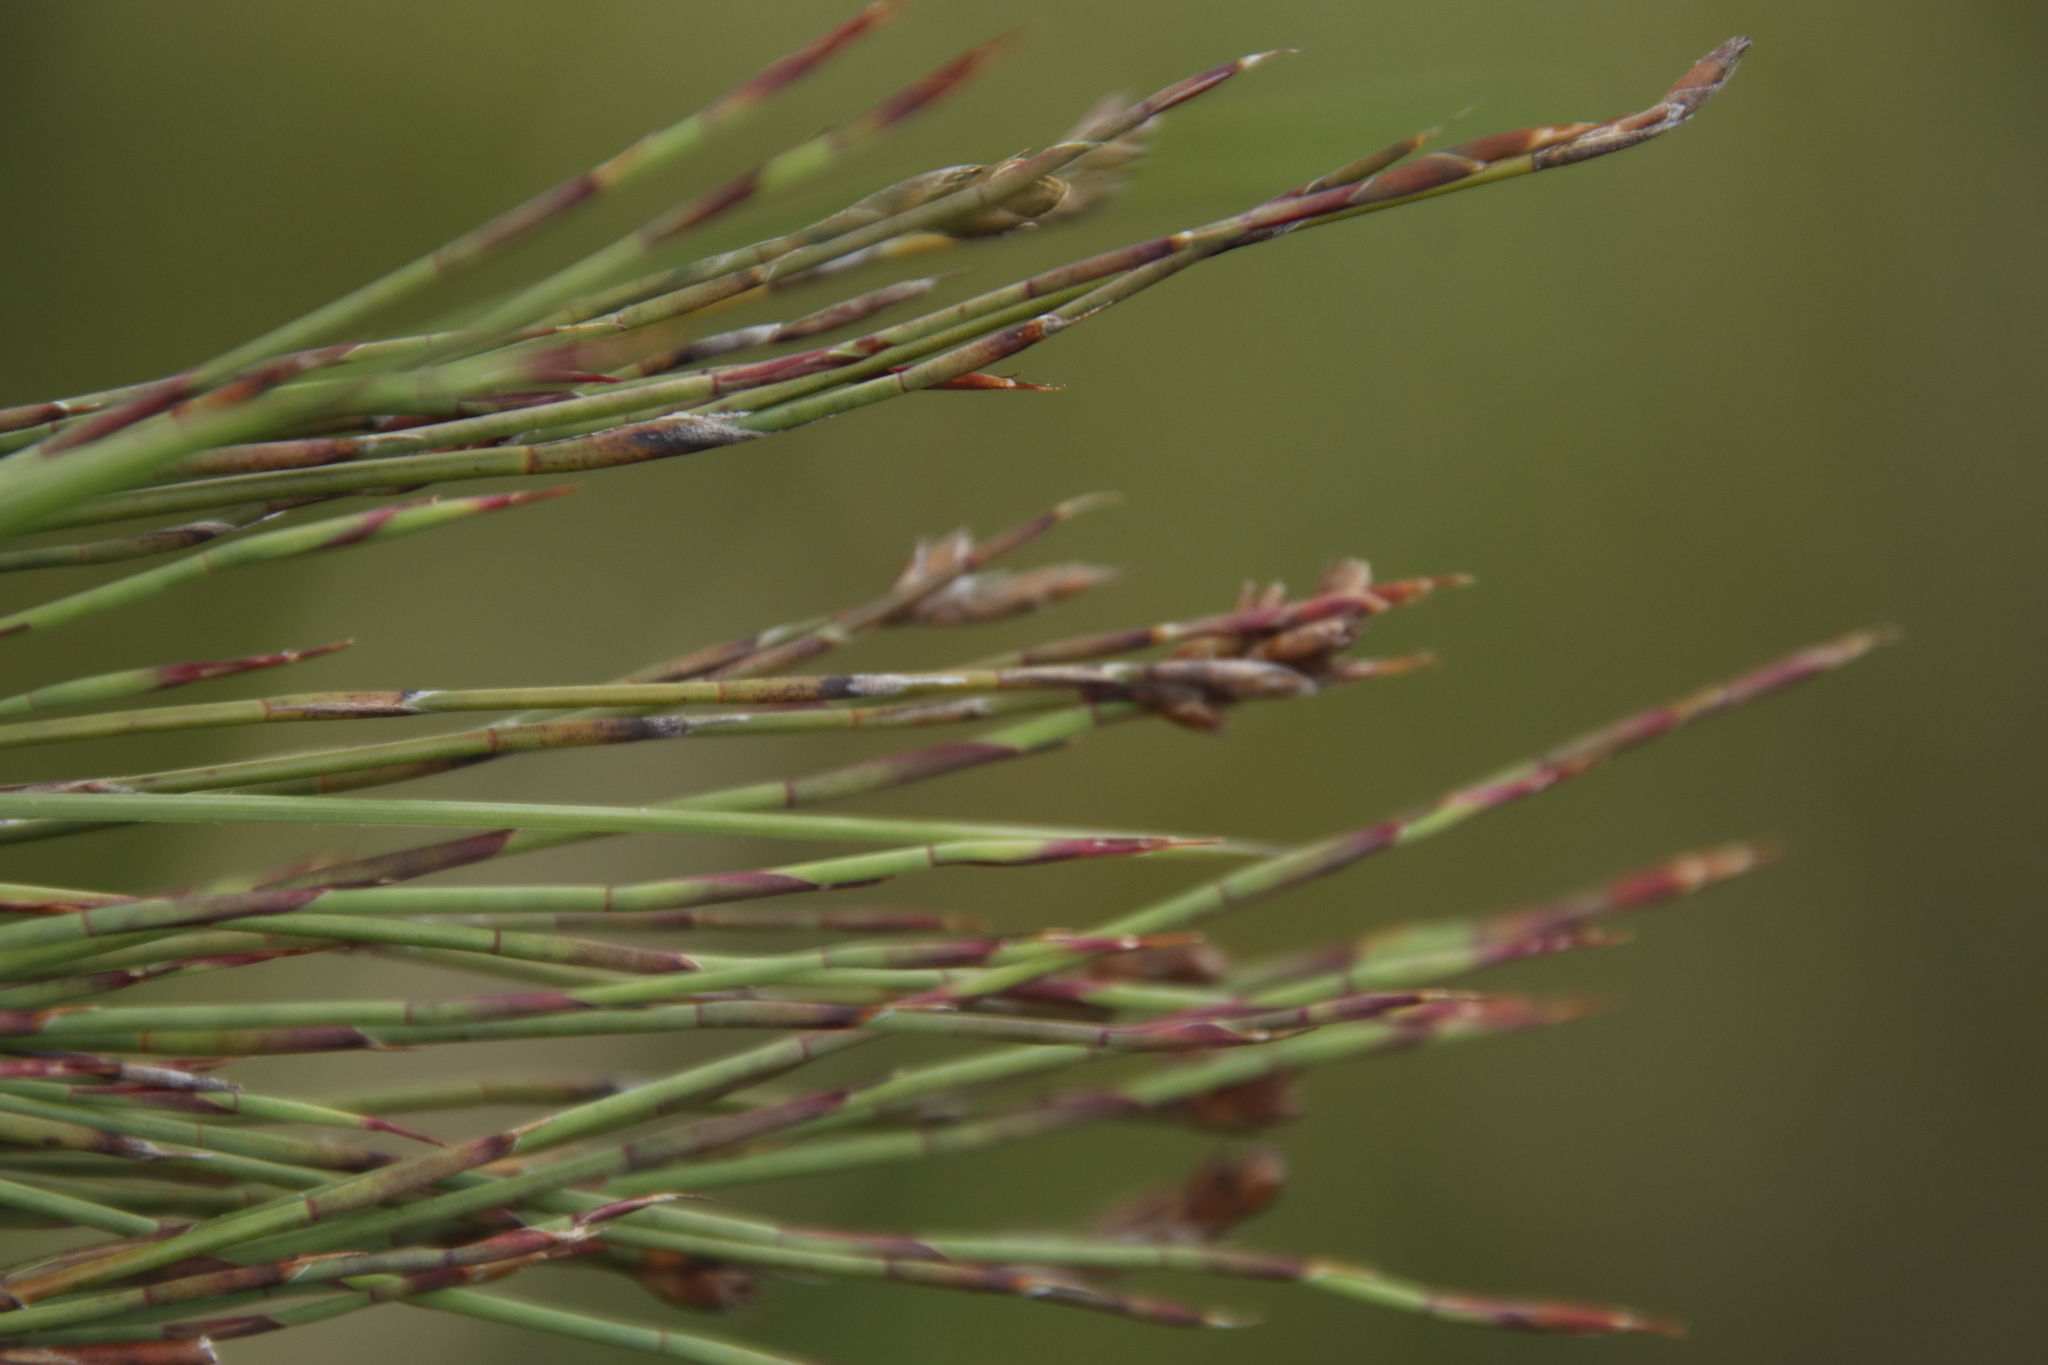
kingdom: Plantae
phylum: Tracheophyta
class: Liliopsida
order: Poales
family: Restionaceae
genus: Restio
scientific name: Restio schoenoides
